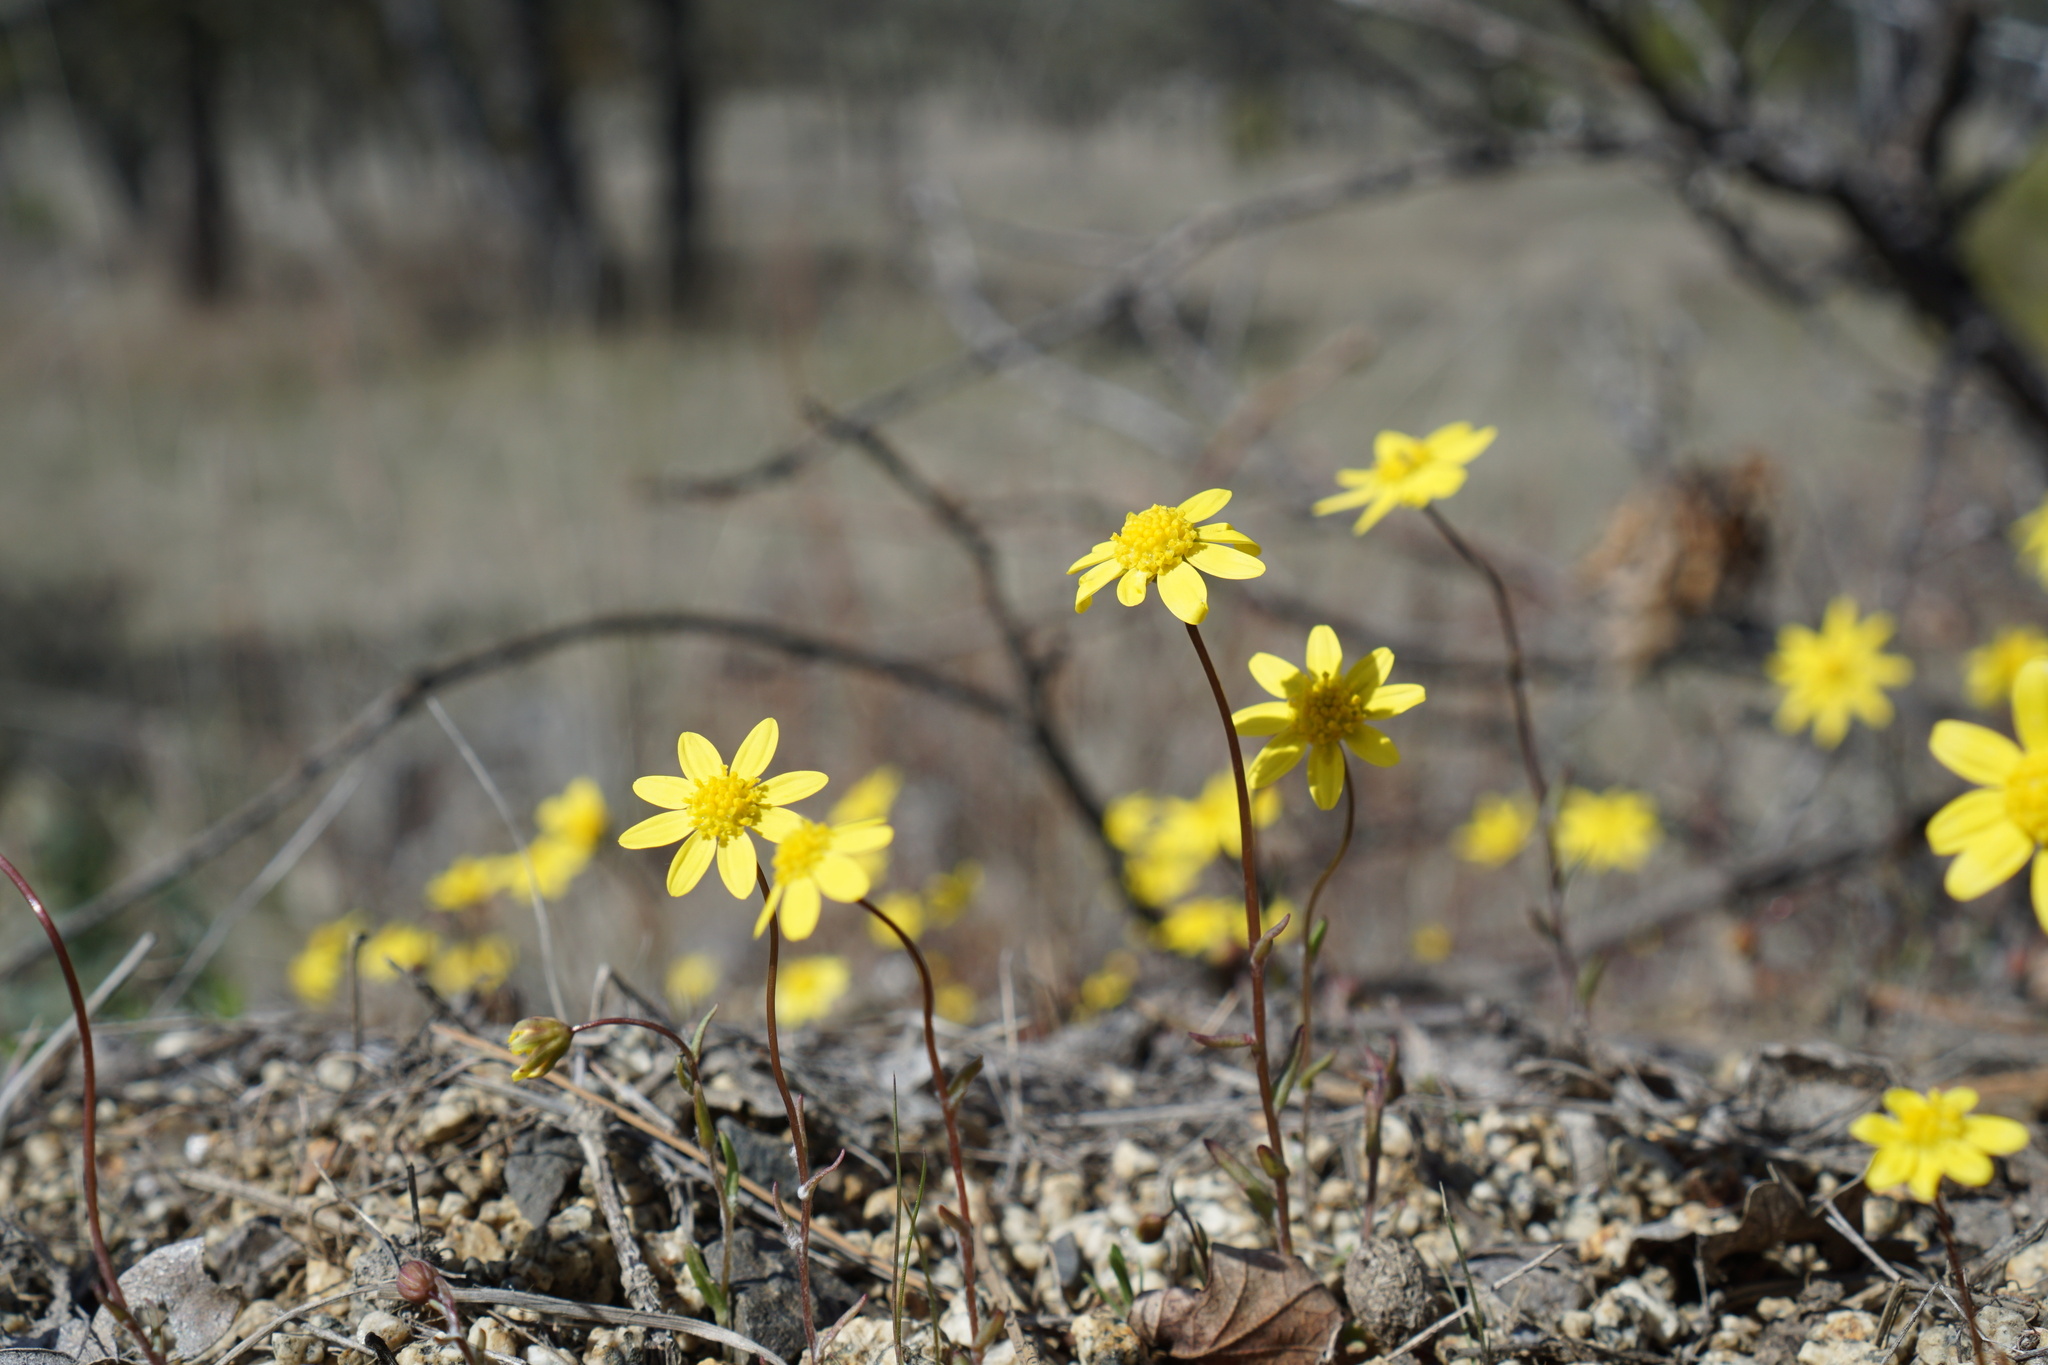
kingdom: Plantae
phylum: Tracheophyta
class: Magnoliopsida
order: Asterales
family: Asteraceae
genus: Crocidium
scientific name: Crocidium multicaule
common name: Common spring gold
